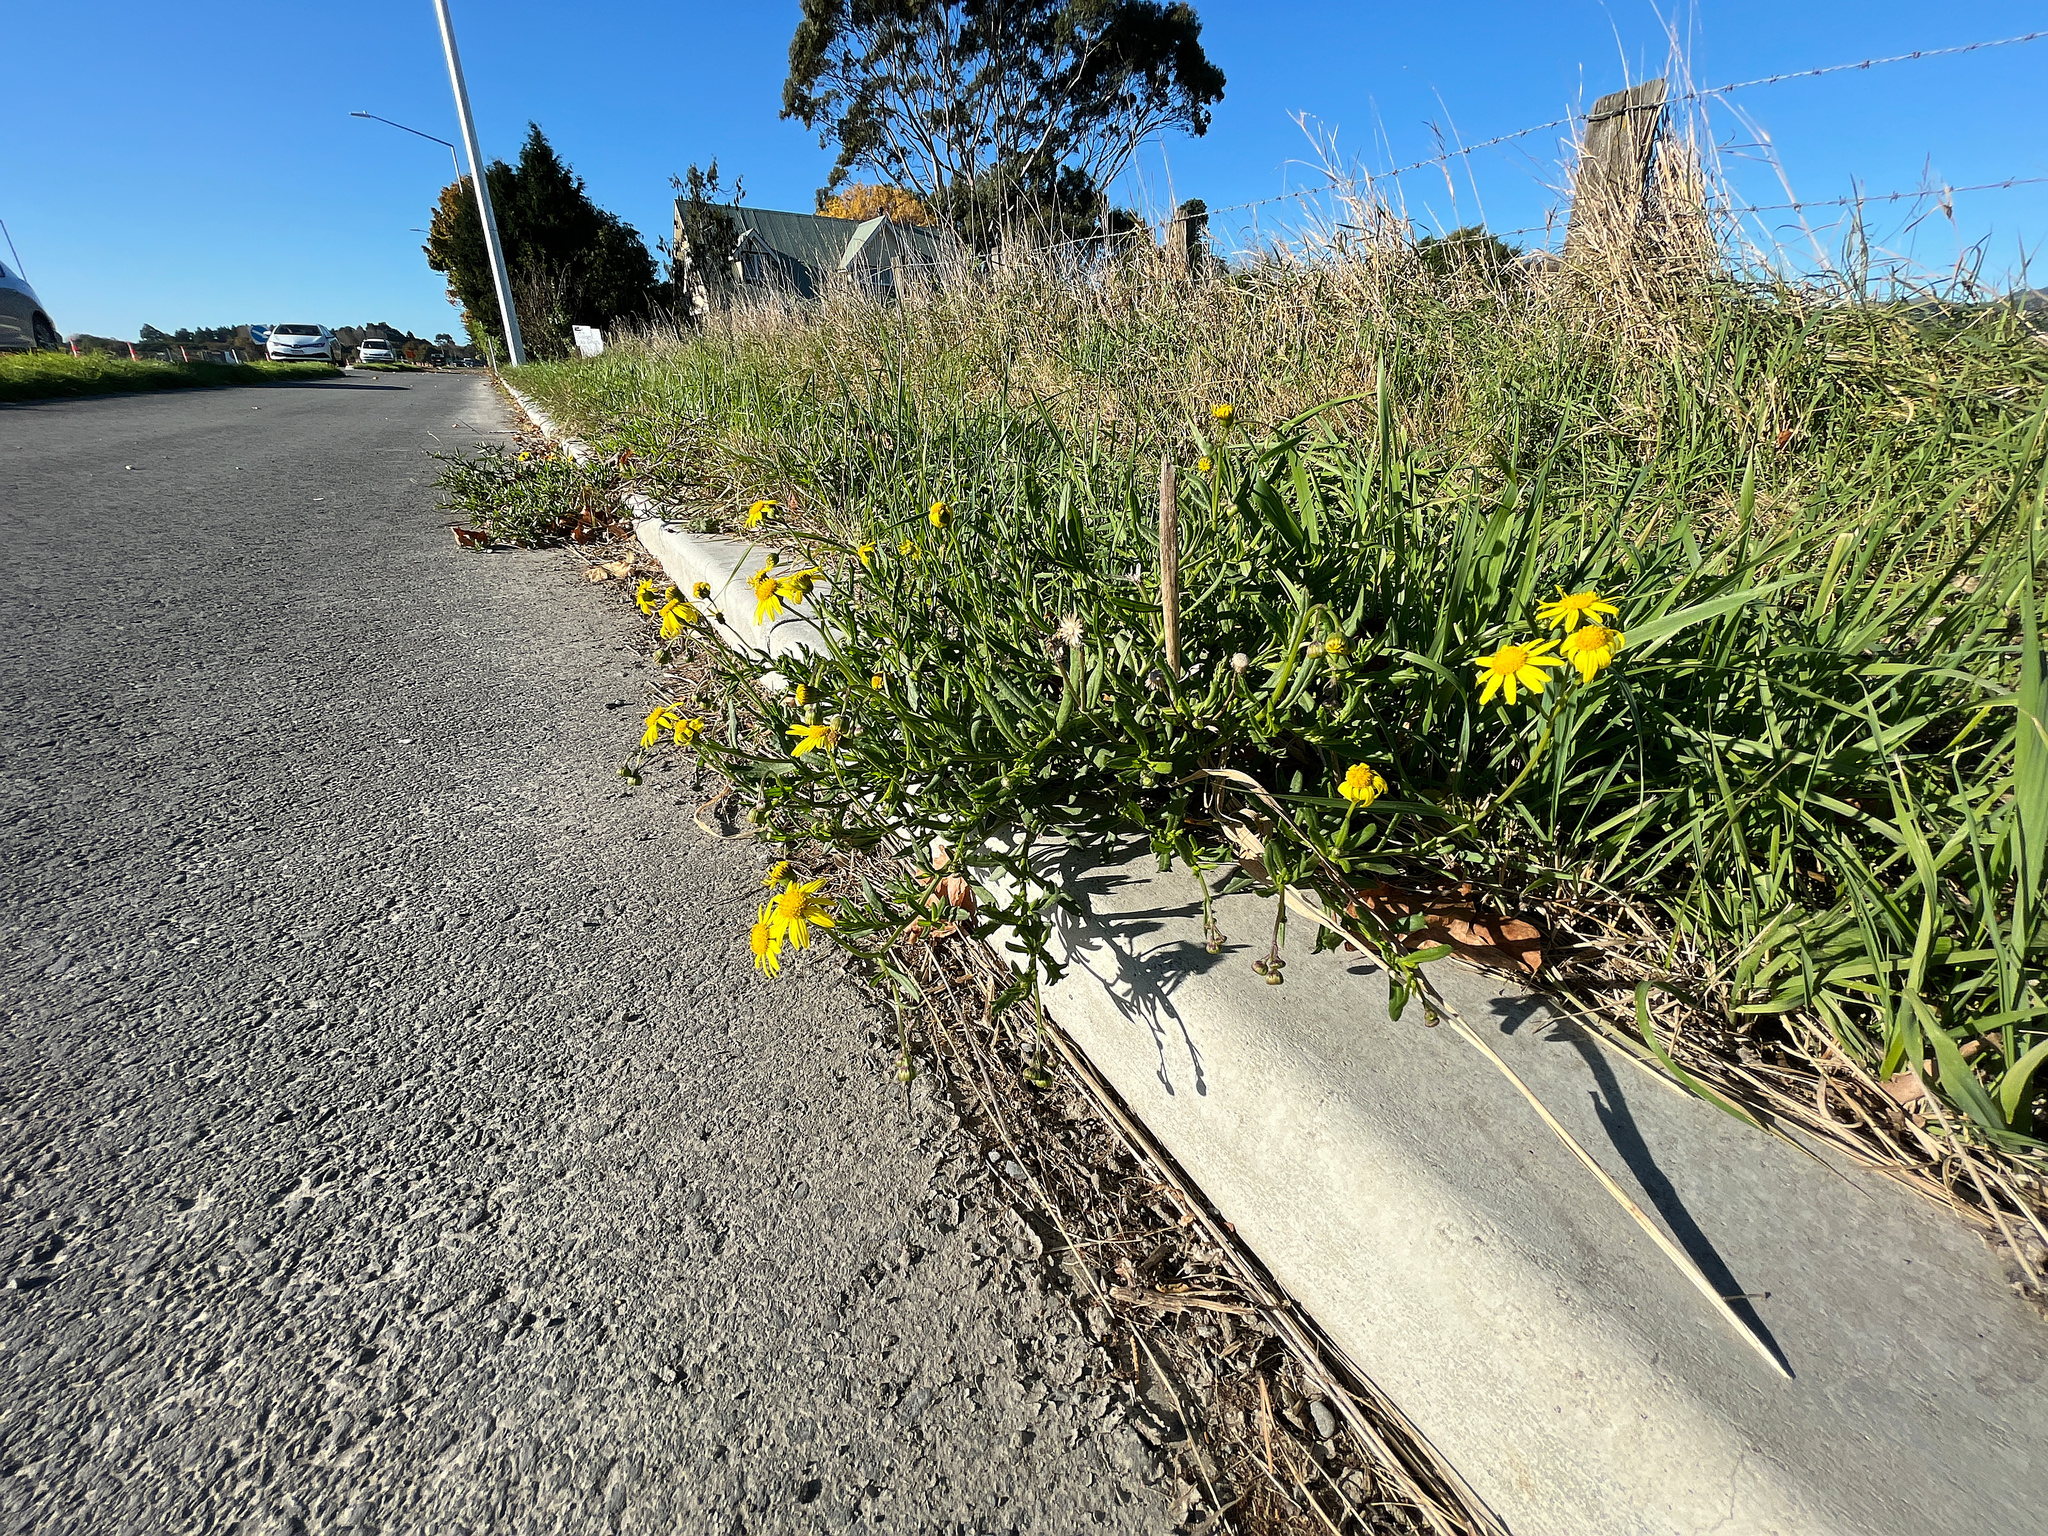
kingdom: Plantae
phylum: Tracheophyta
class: Magnoliopsida
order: Asterales
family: Asteraceae
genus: Senecio
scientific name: Senecio skirrhodon
